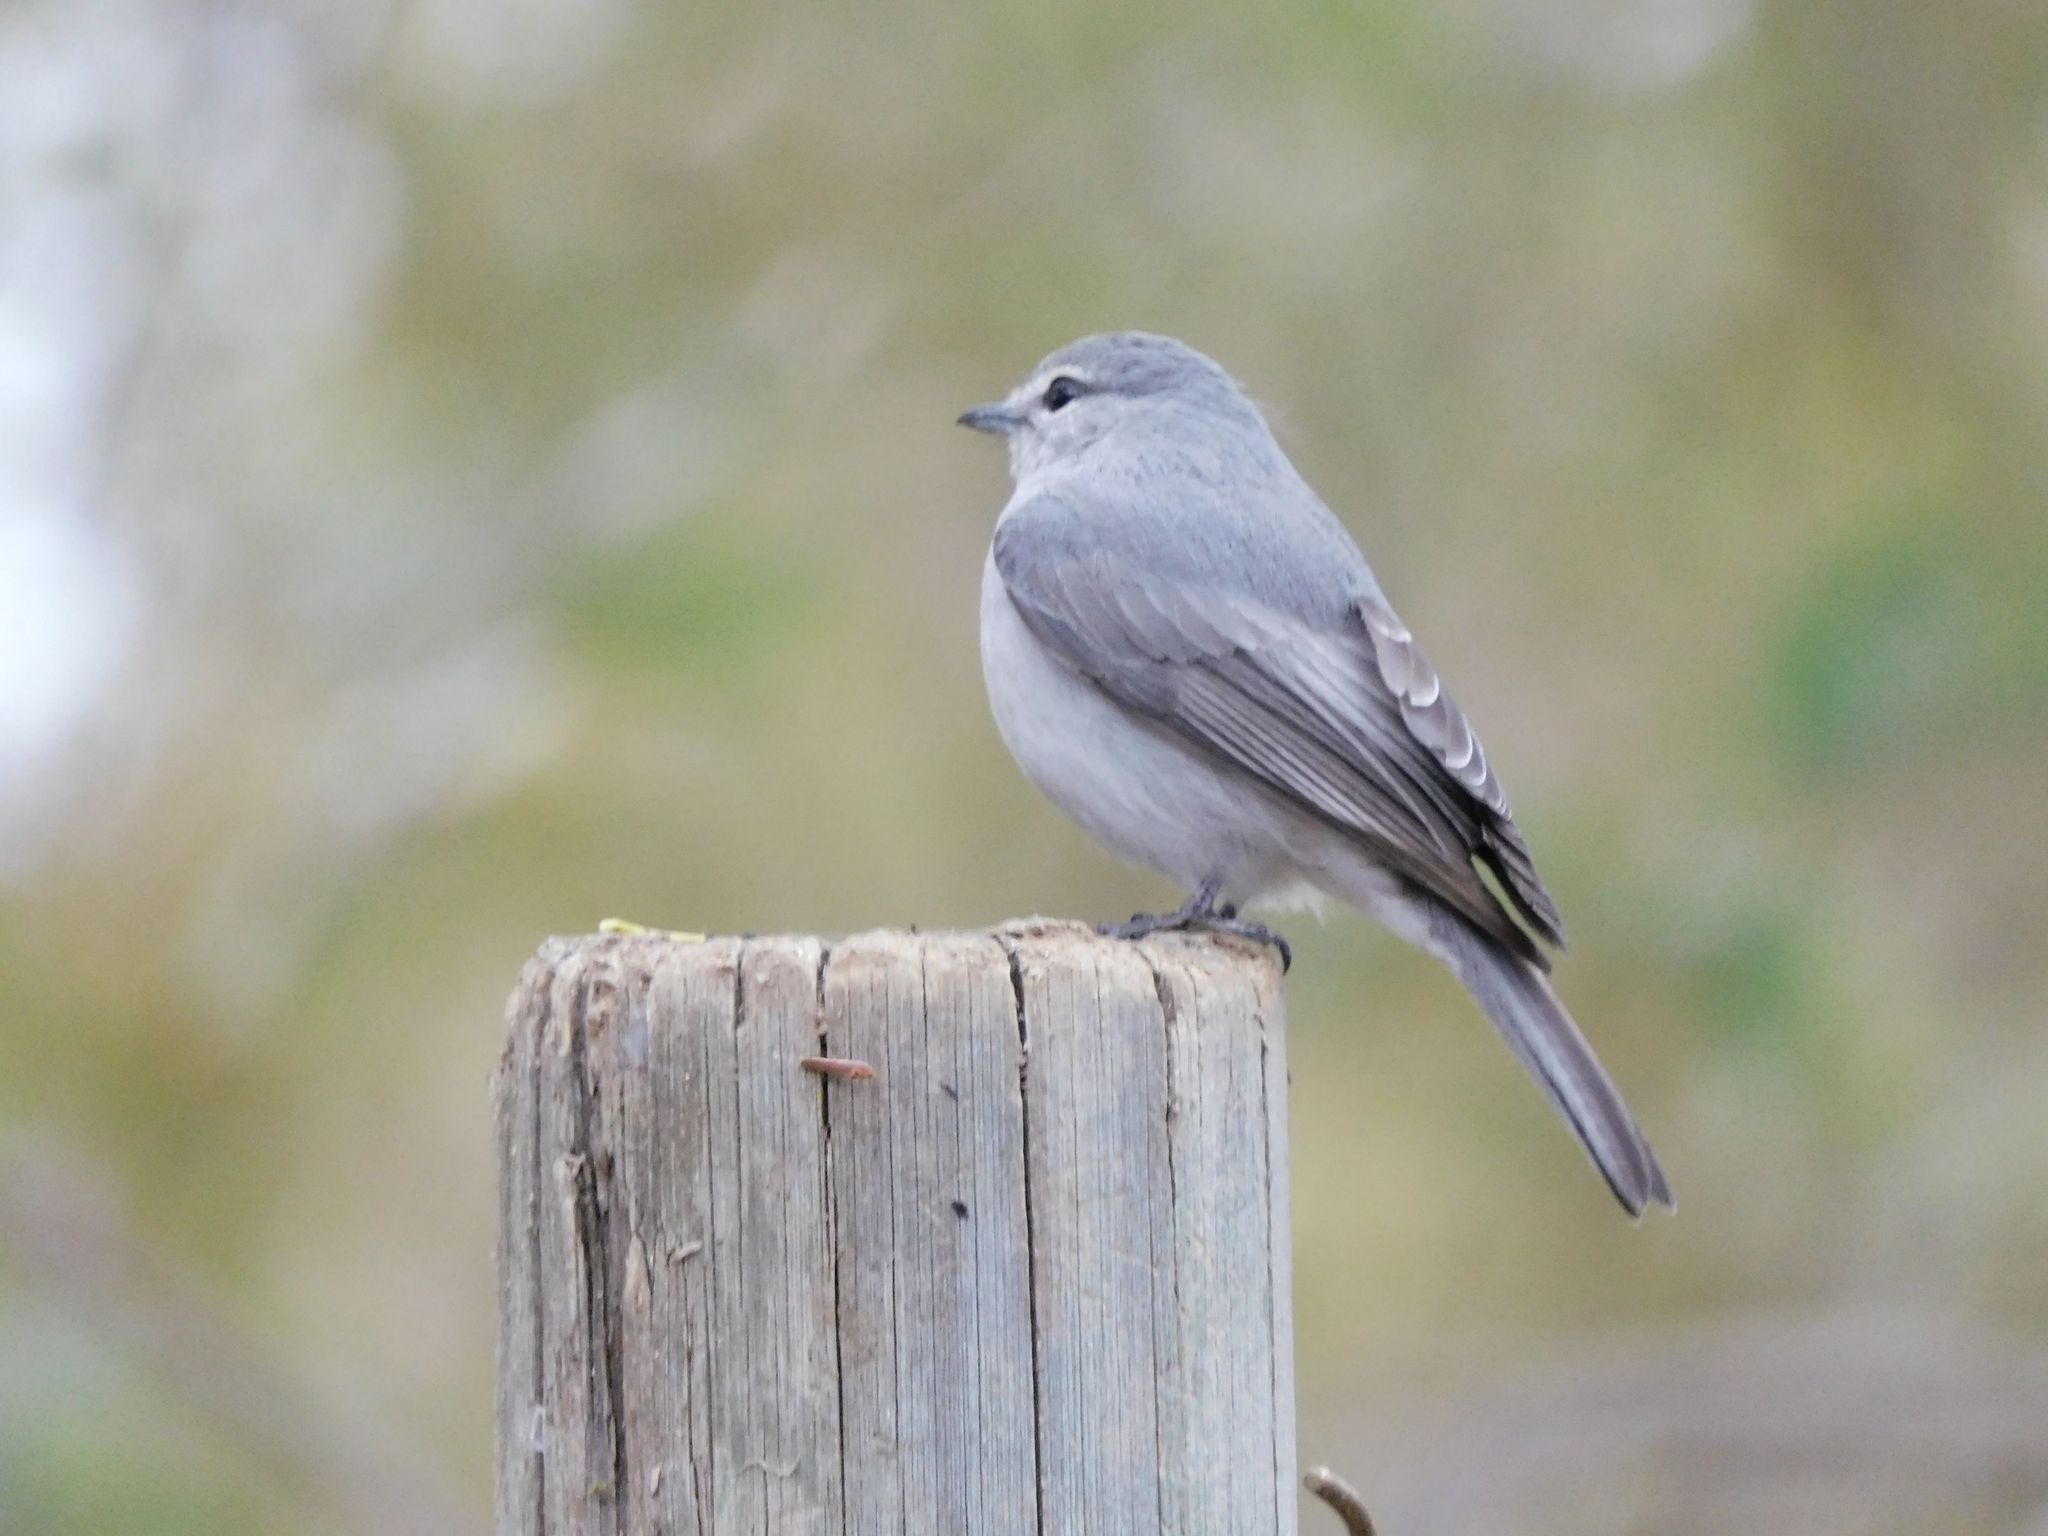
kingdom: Animalia
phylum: Chordata
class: Aves
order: Passeriformes
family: Muscicapidae
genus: Muscicapa
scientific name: Muscicapa caerulescens
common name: Ashy flycatcher
